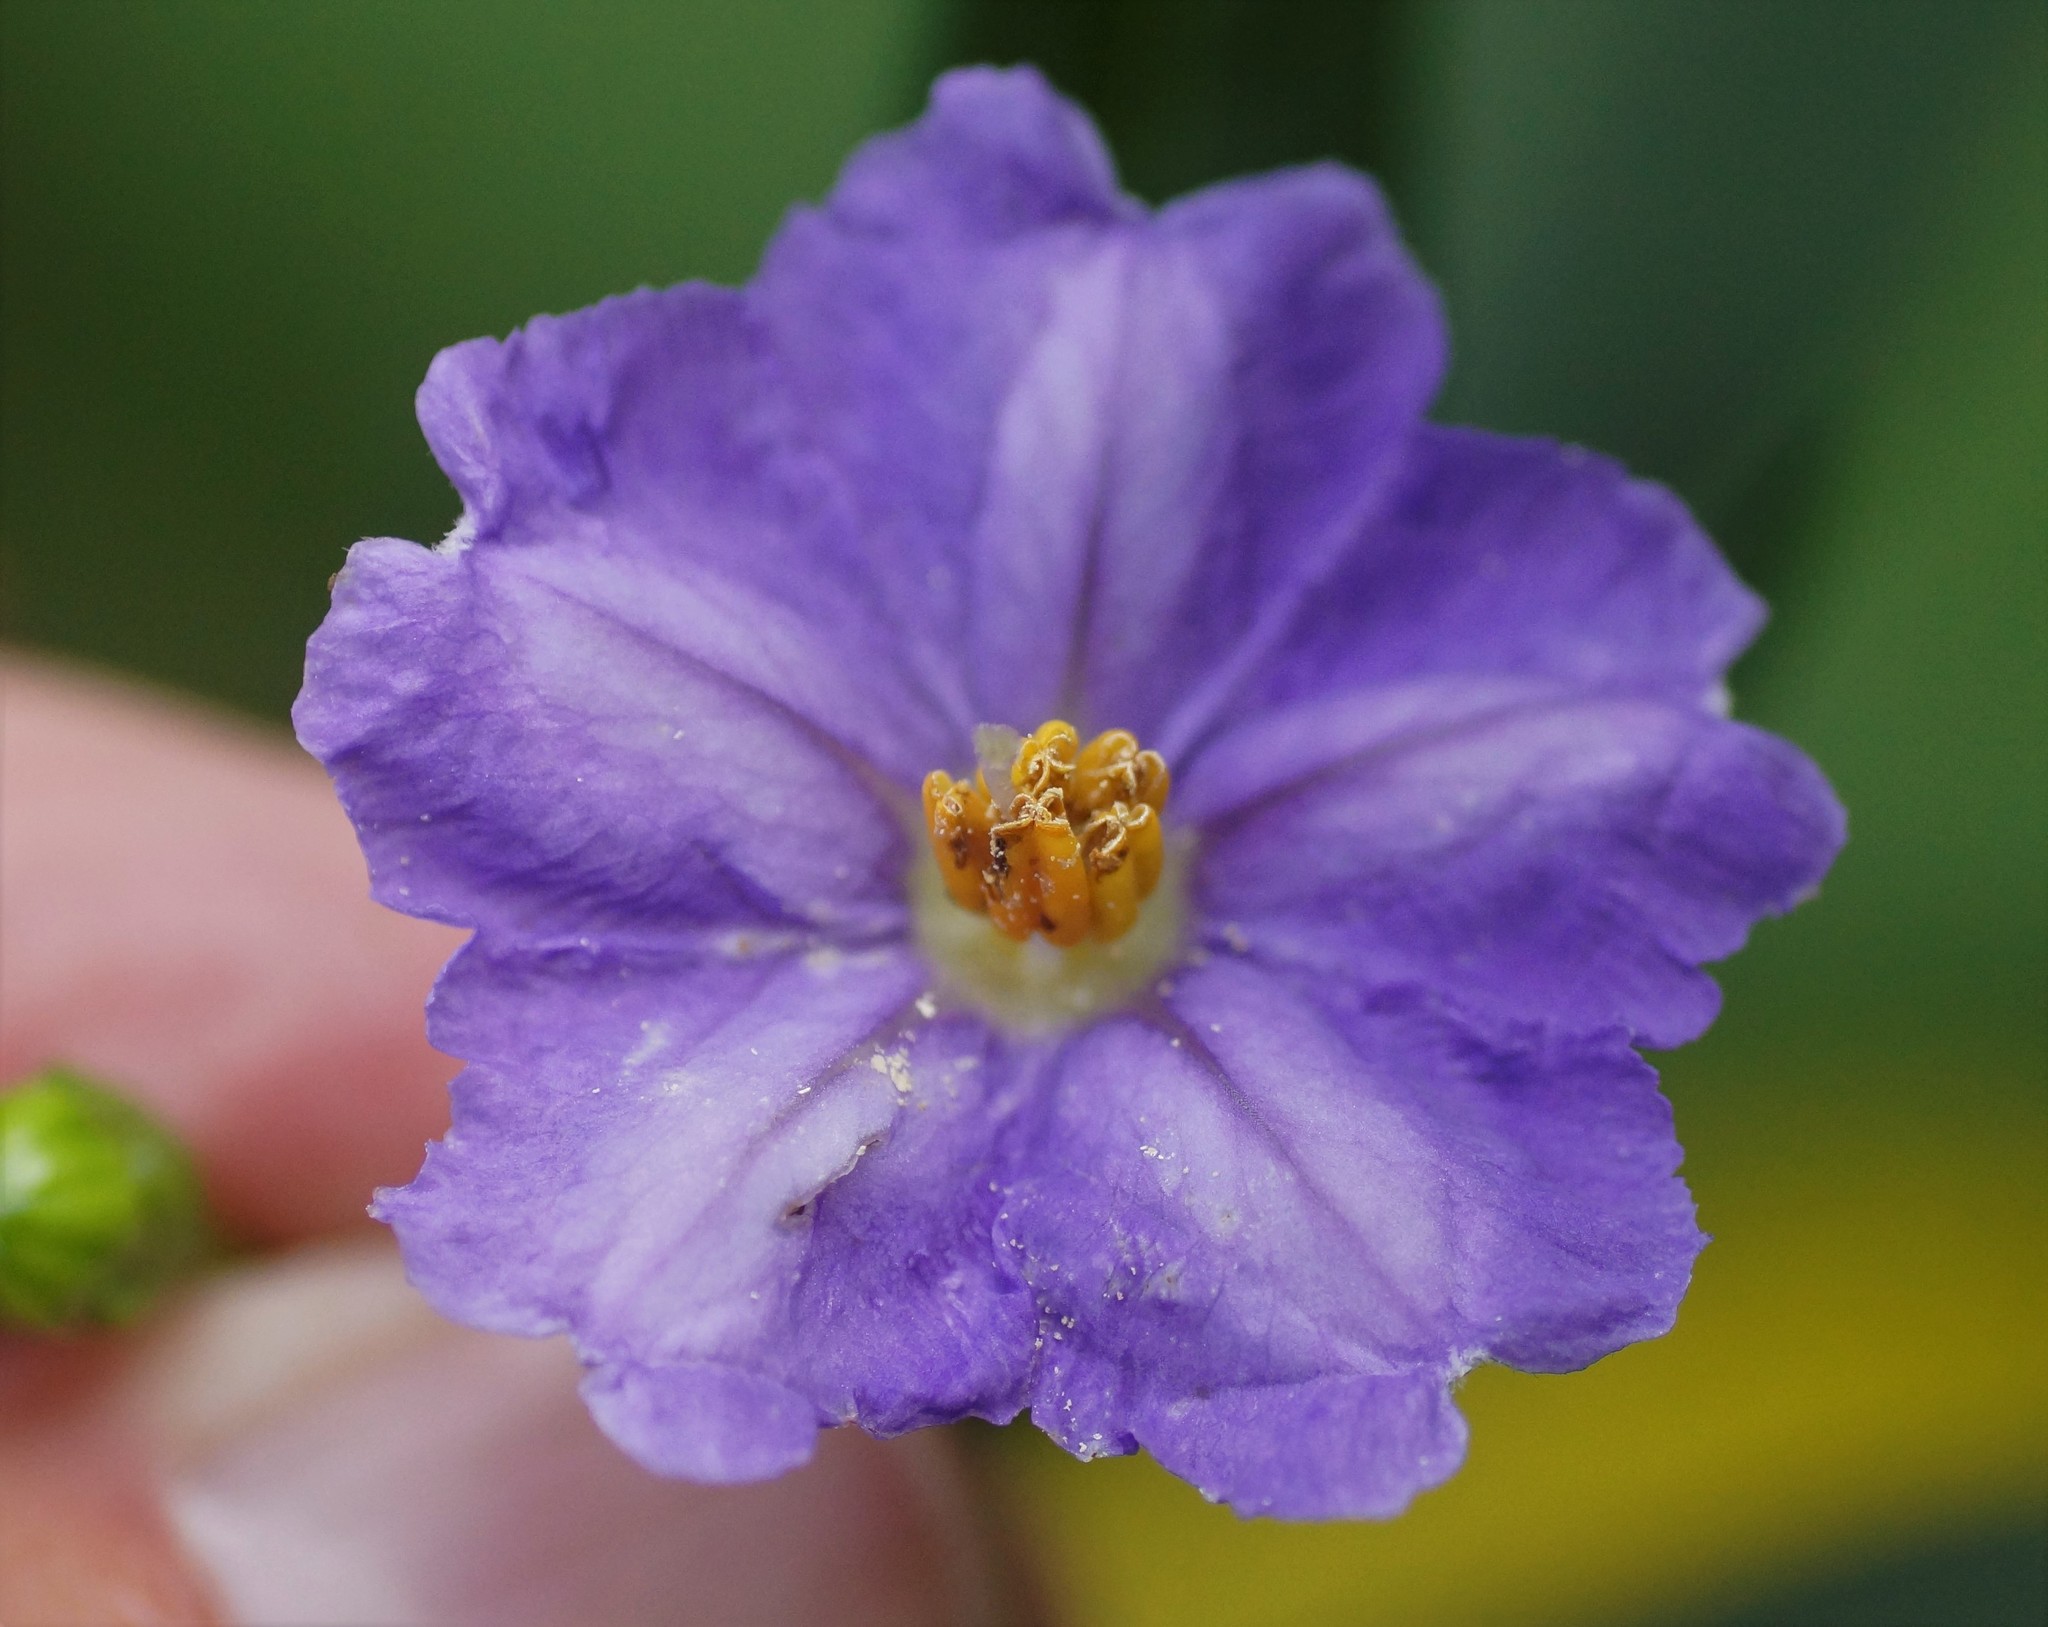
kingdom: Plantae
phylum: Tracheophyta
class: Magnoliopsida
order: Solanales
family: Solanaceae
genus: Solanum
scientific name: Solanum laciniatum
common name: Kangaroo-apple
